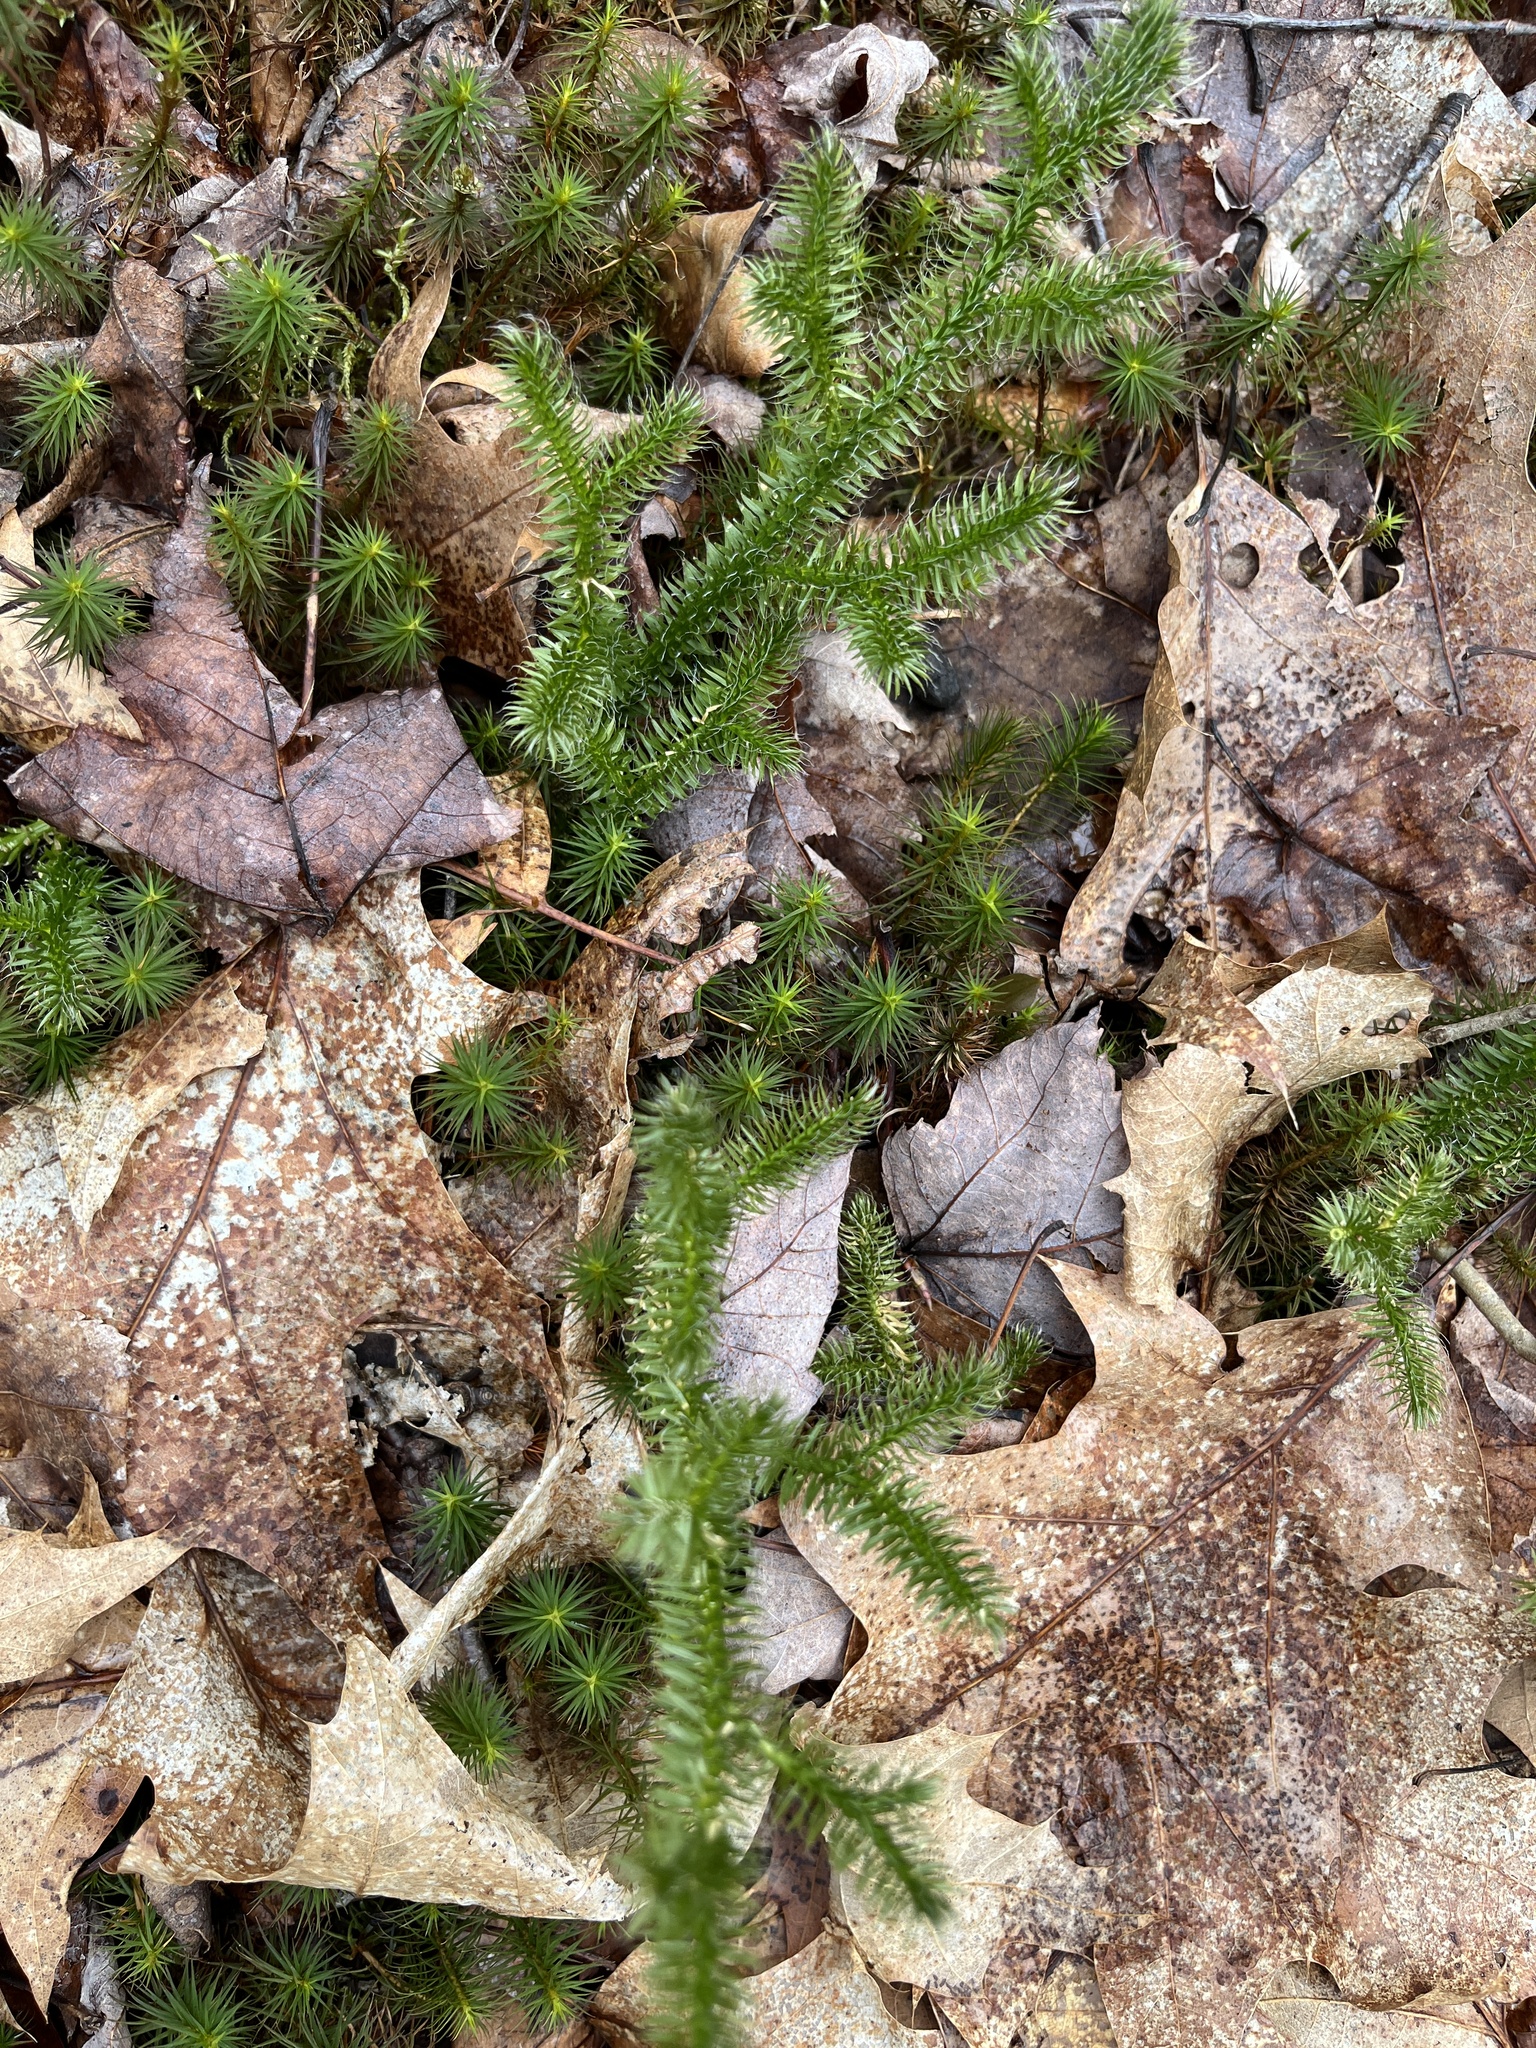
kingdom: Plantae
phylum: Tracheophyta
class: Lycopodiopsida
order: Lycopodiales
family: Lycopodiaceae
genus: Lycopodium
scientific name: Lycopodium clavatum
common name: Stag's-horn clubmoss
